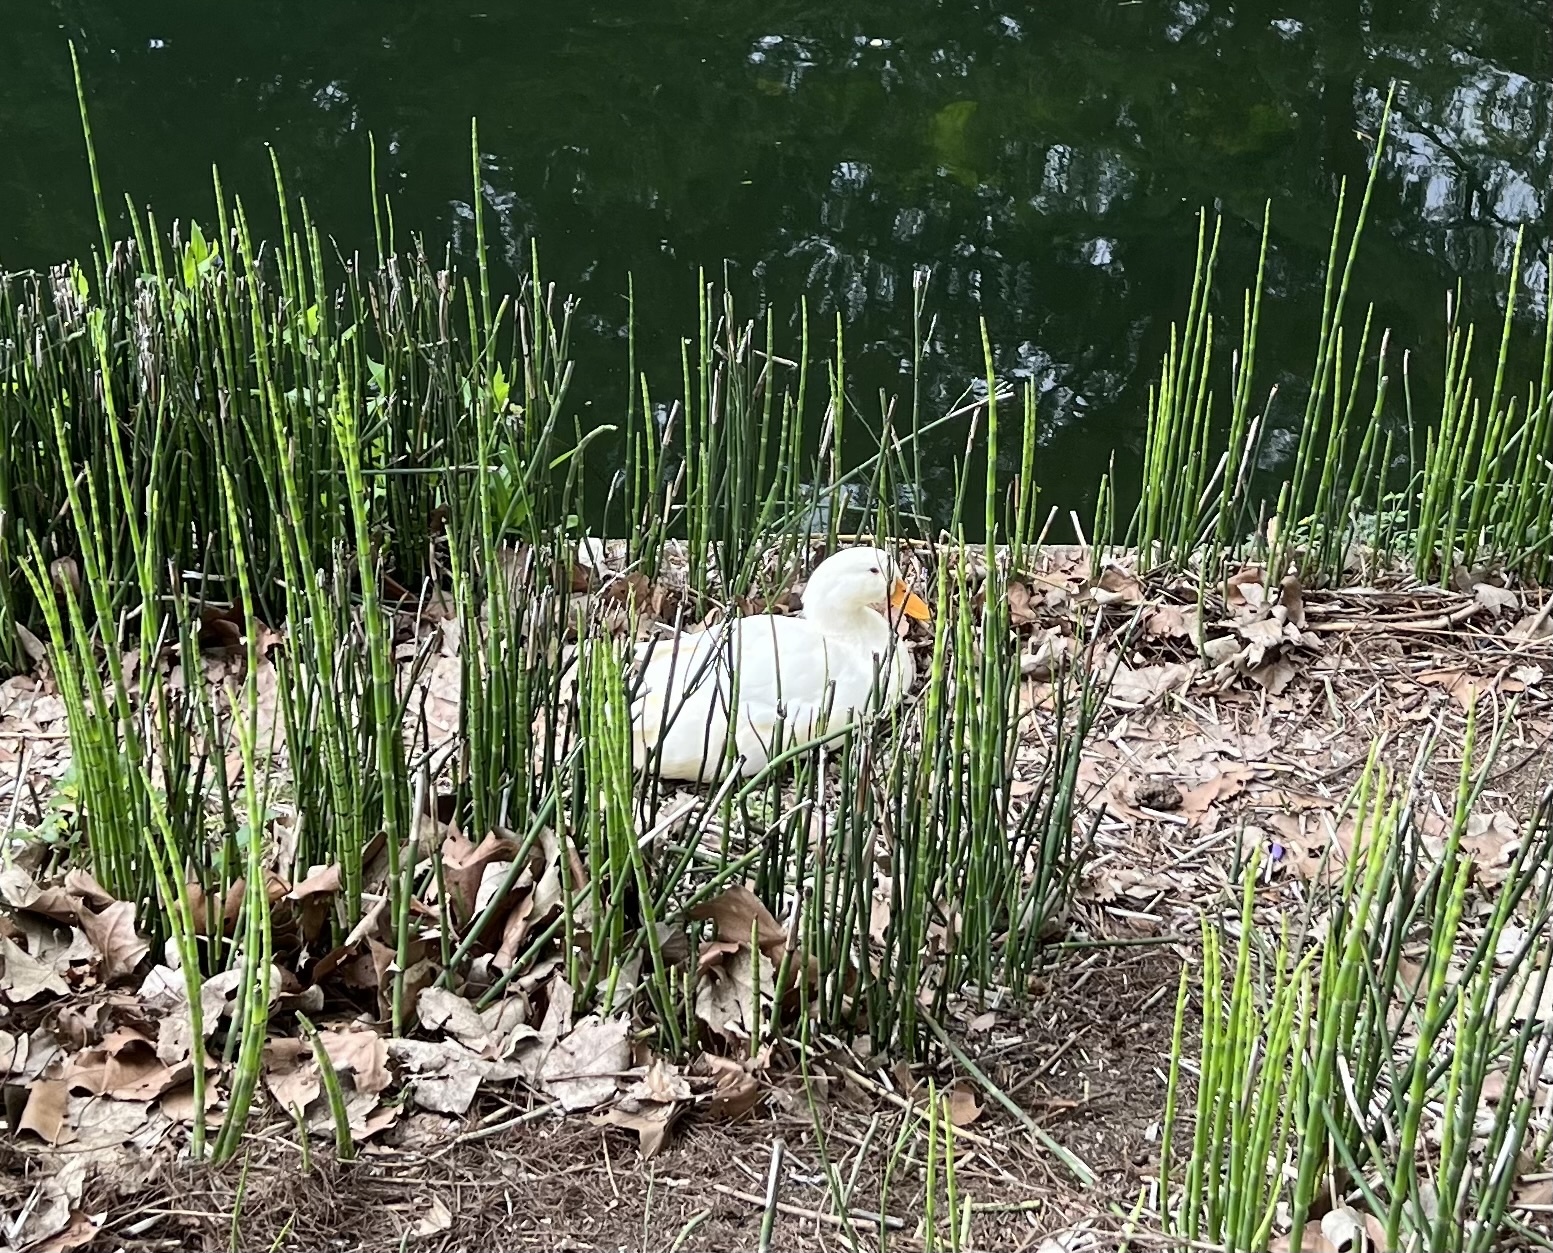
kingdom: Animalia
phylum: Chordata
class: Aves
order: Anseriformes
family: Anatidae
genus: Anas
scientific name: Anas platyrhynchos
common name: Mallard
